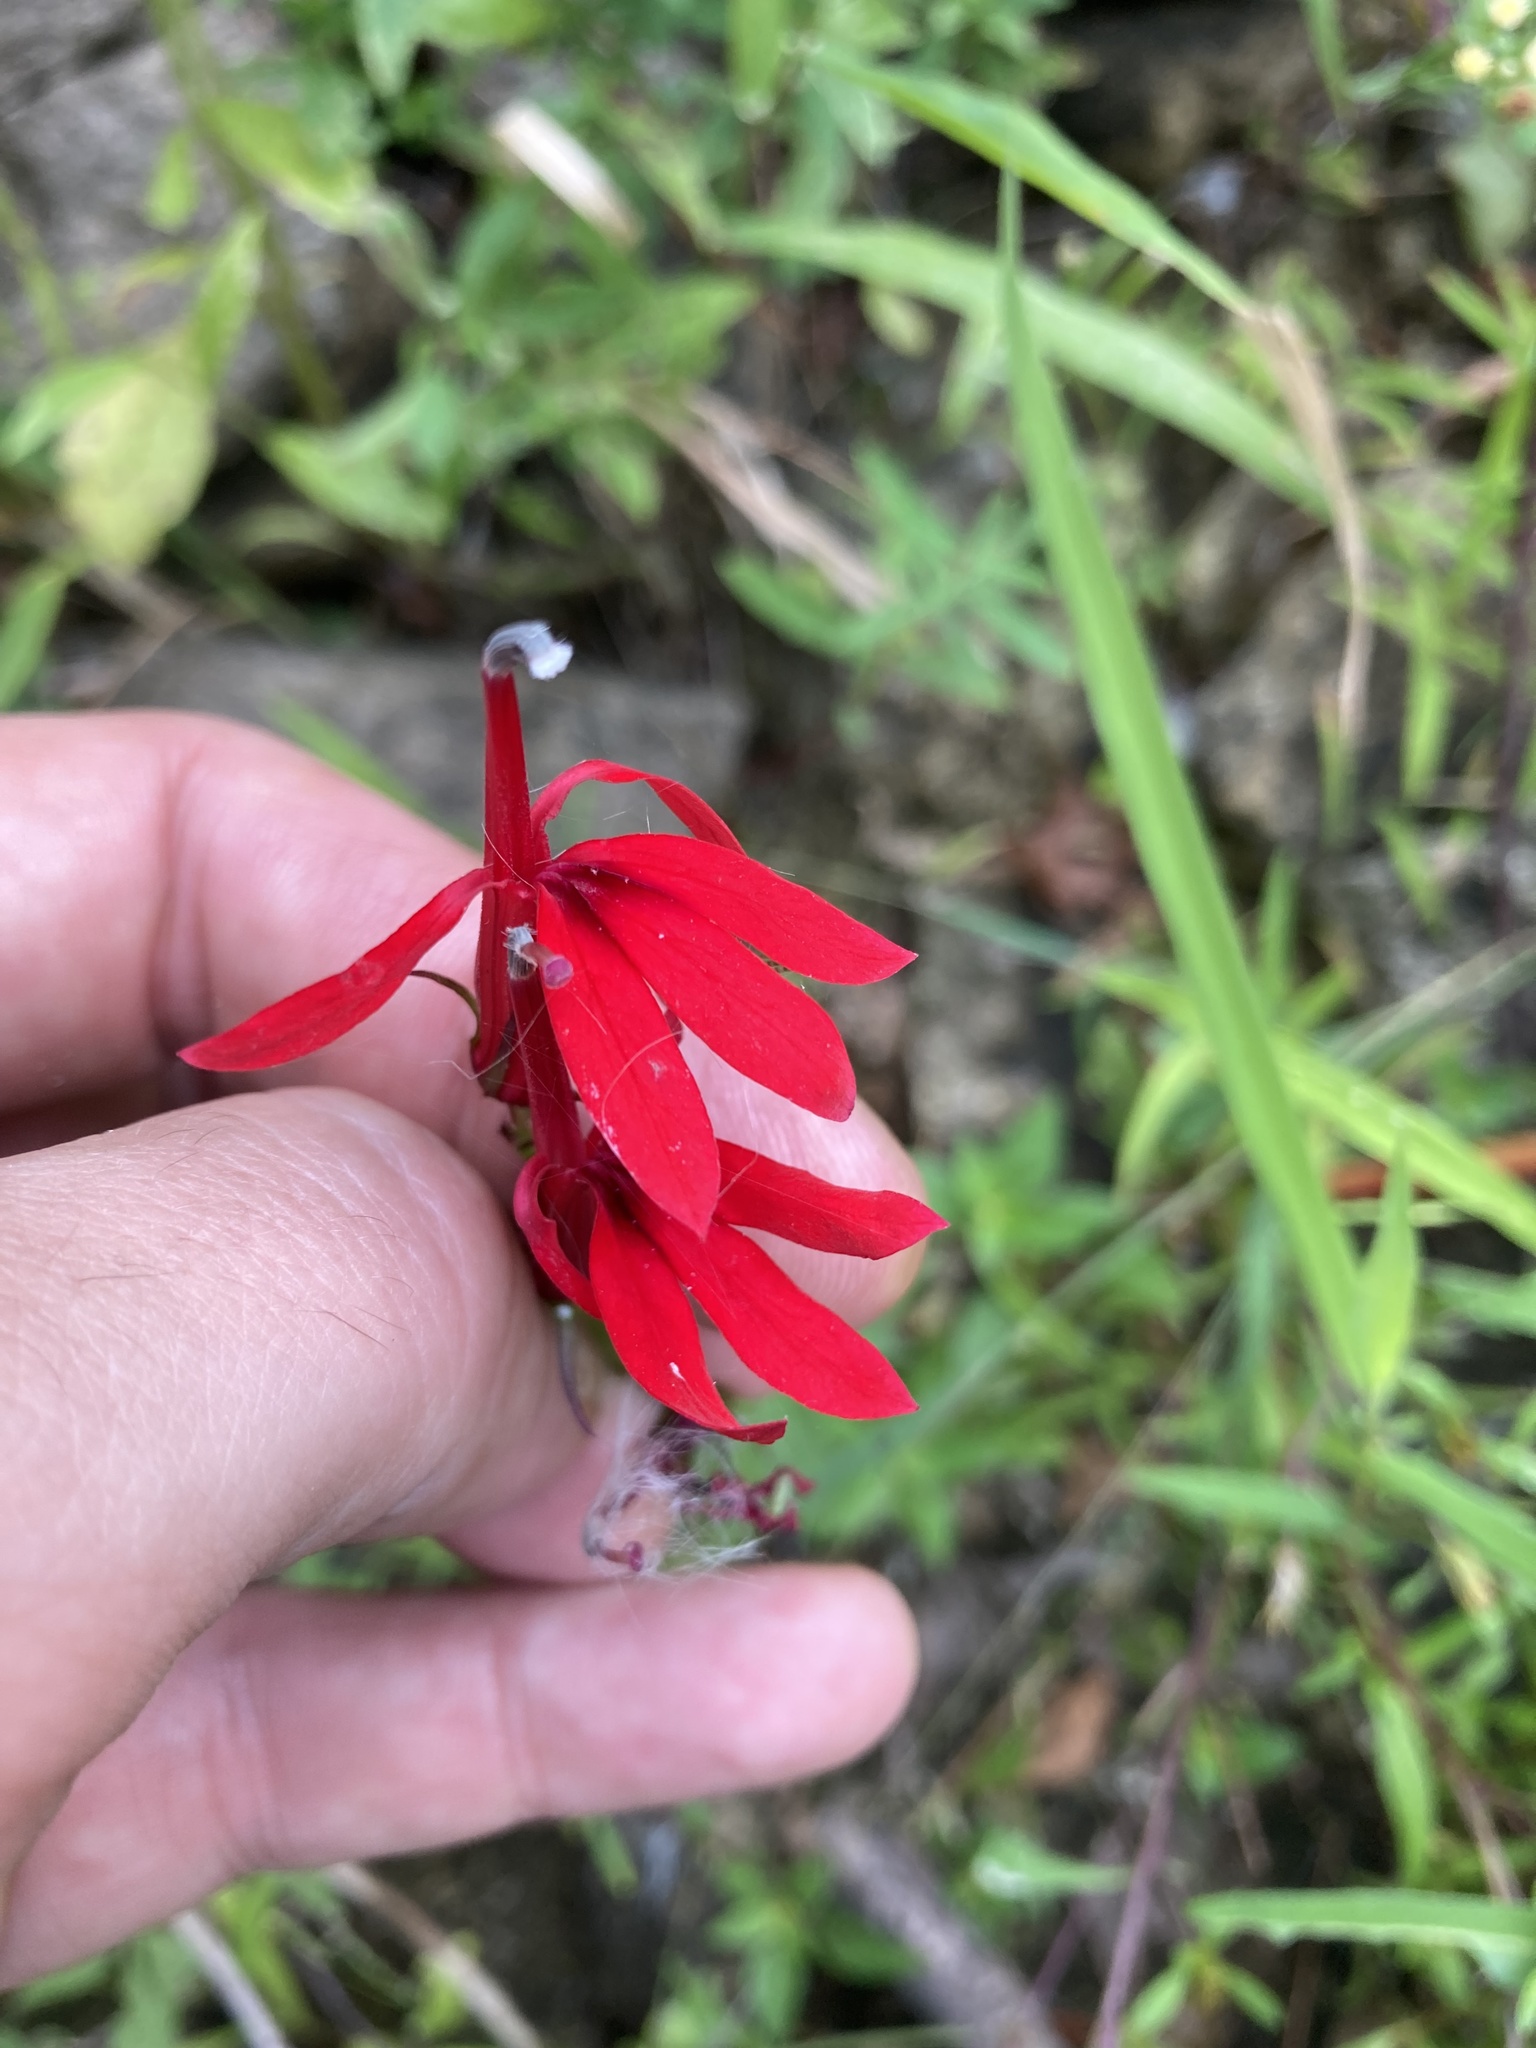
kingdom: Plantae
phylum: Tracheophyta
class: Magnoliopsida
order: Asterales
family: Campanulaceae
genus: Lobelia
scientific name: Lobelia cardinalis
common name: Cardinal flower
